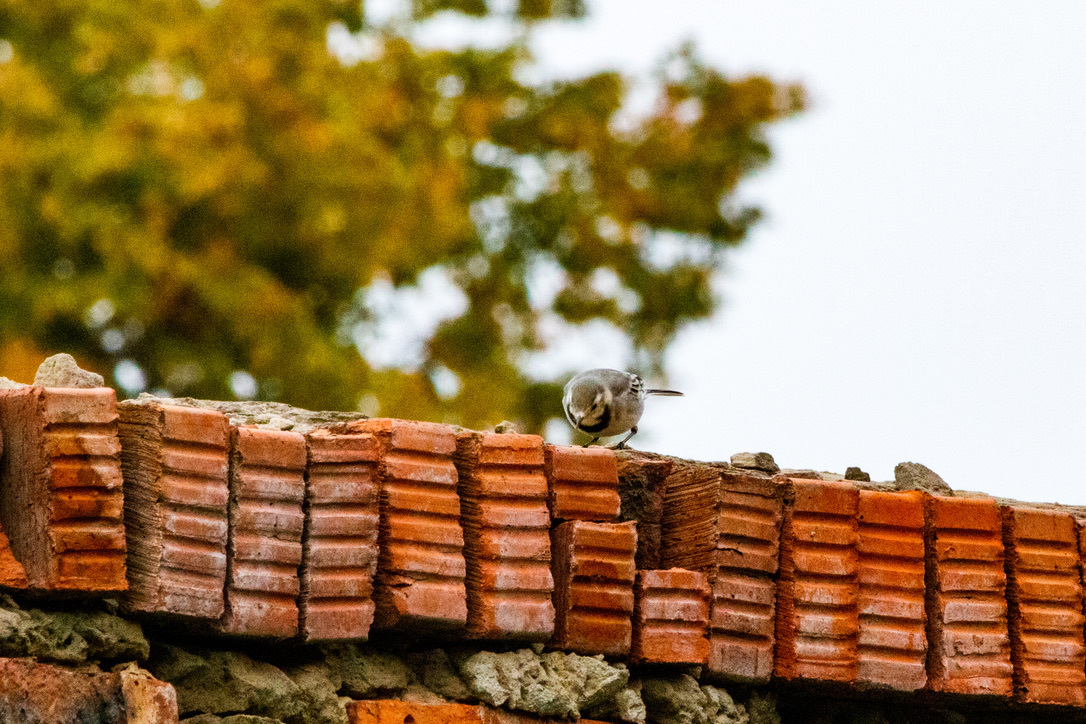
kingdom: Animalia
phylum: Chordata
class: Aves
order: Passeriformes
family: Motacillidae
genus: Motacilla
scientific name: Motacilla alba
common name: White wagtail
